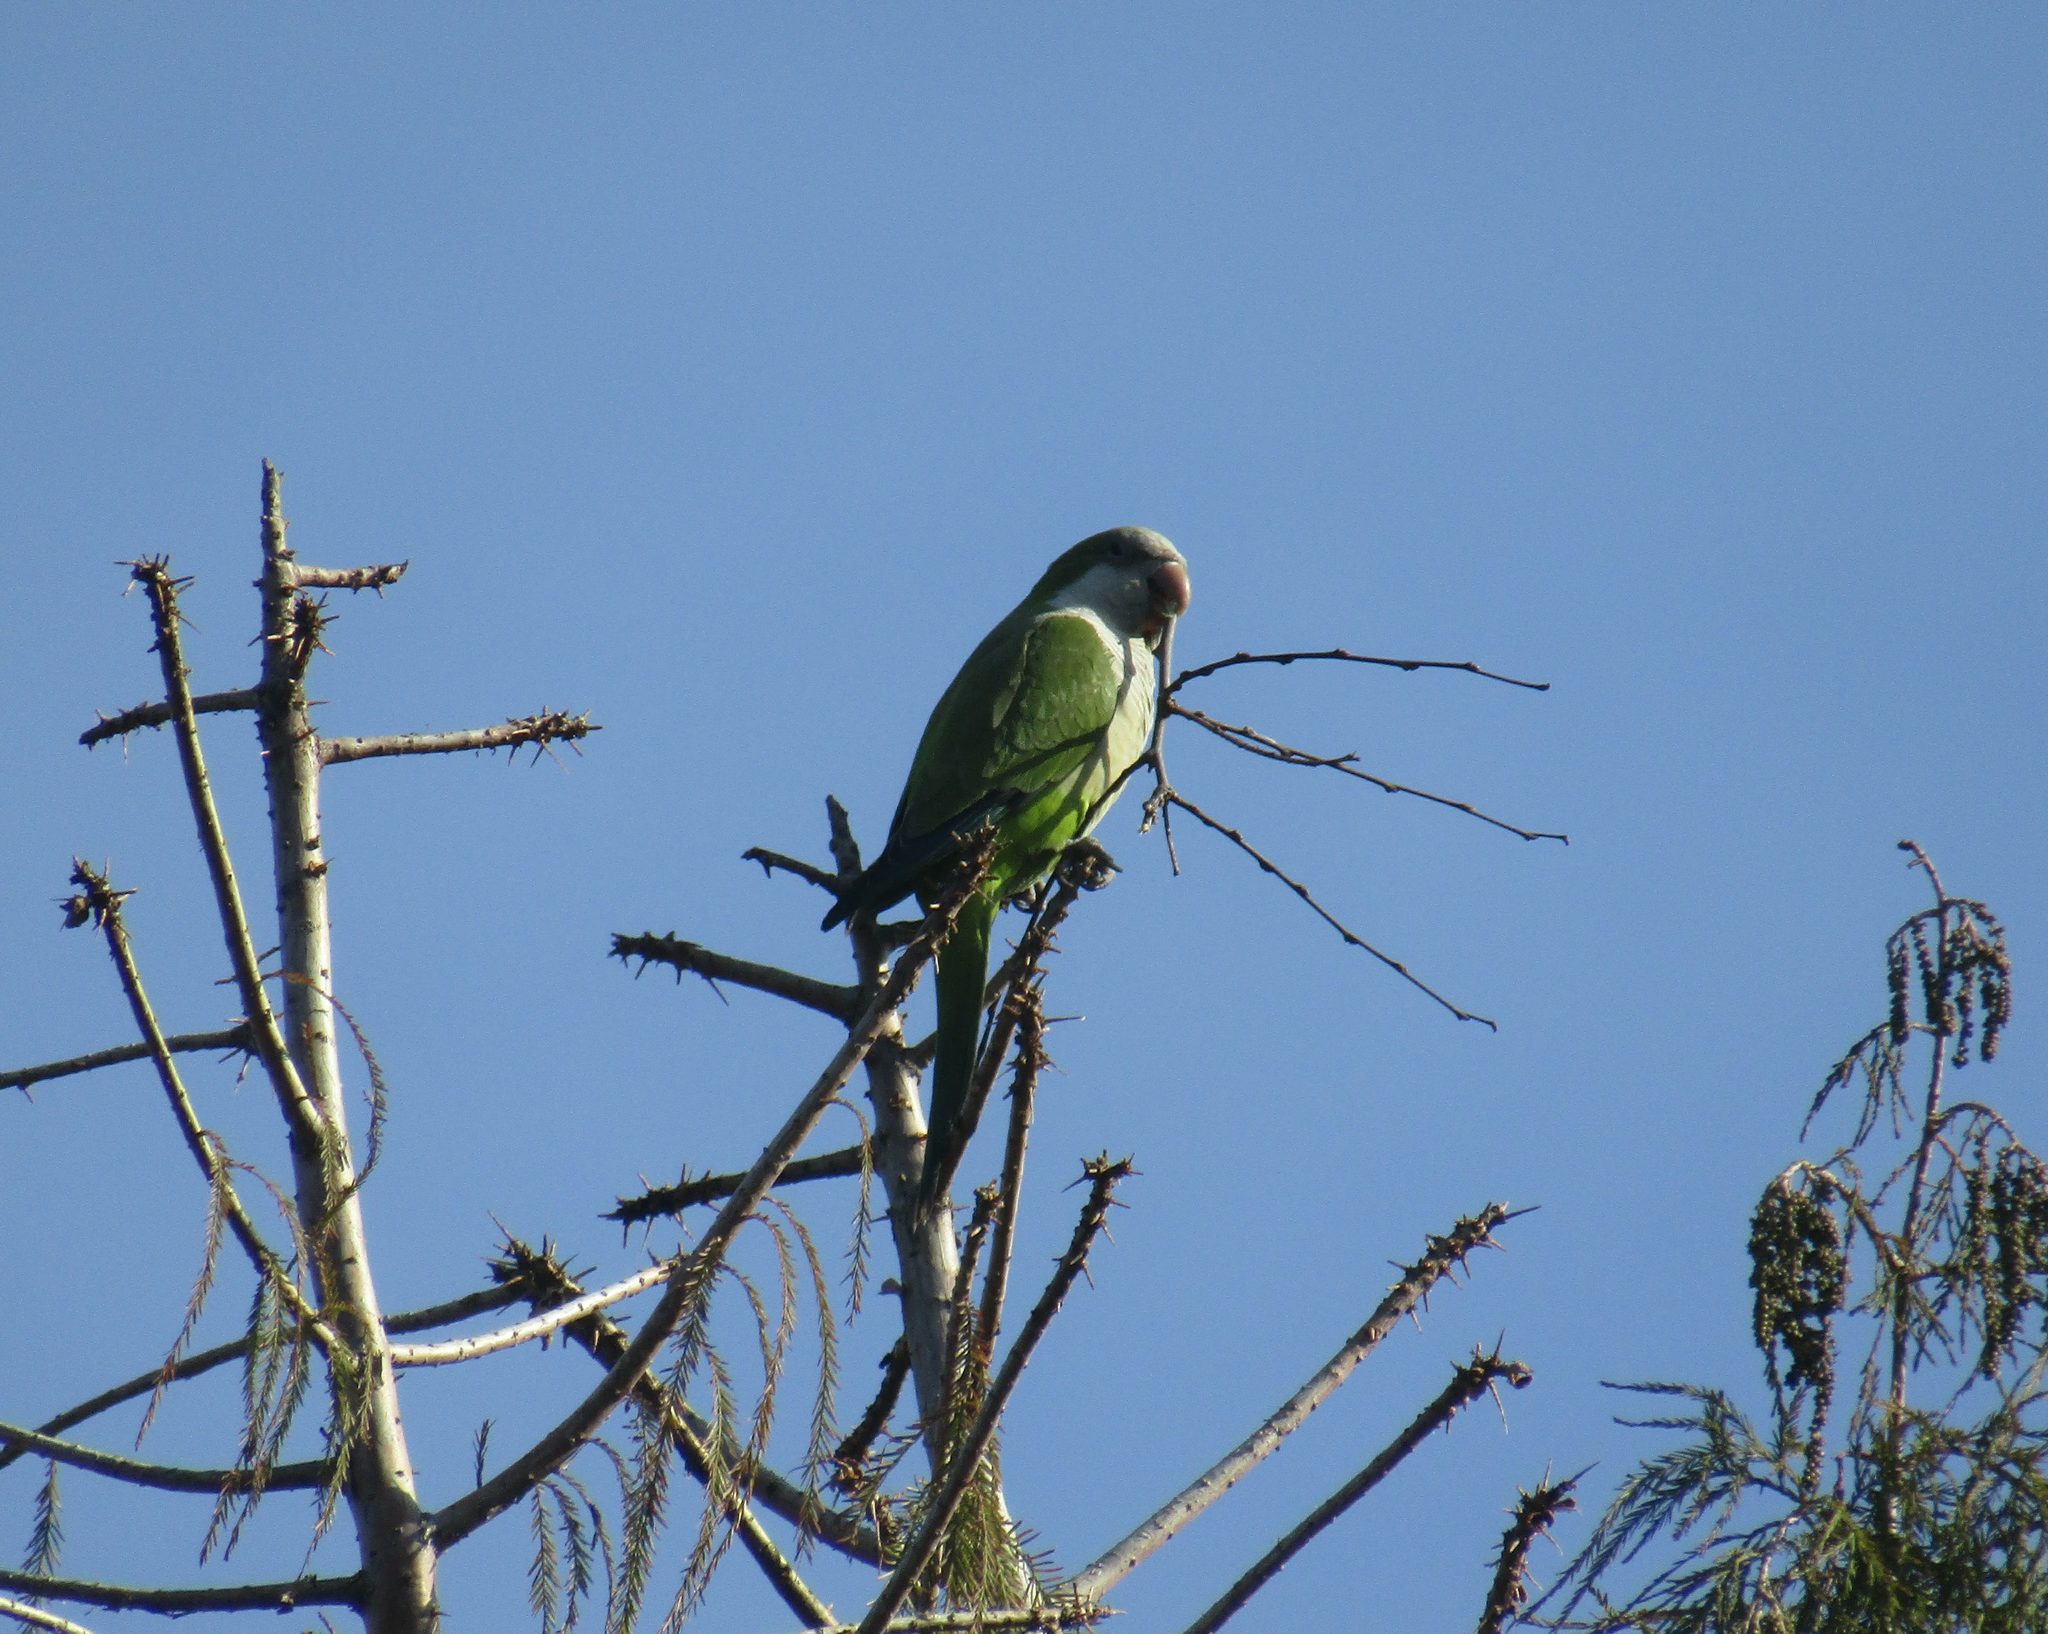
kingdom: Animalia
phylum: Chordata
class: Aves
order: Psittaciformes
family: Psittacidae
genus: Myiopsitta
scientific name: Myiopsitta monachus
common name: Monk parakeet
